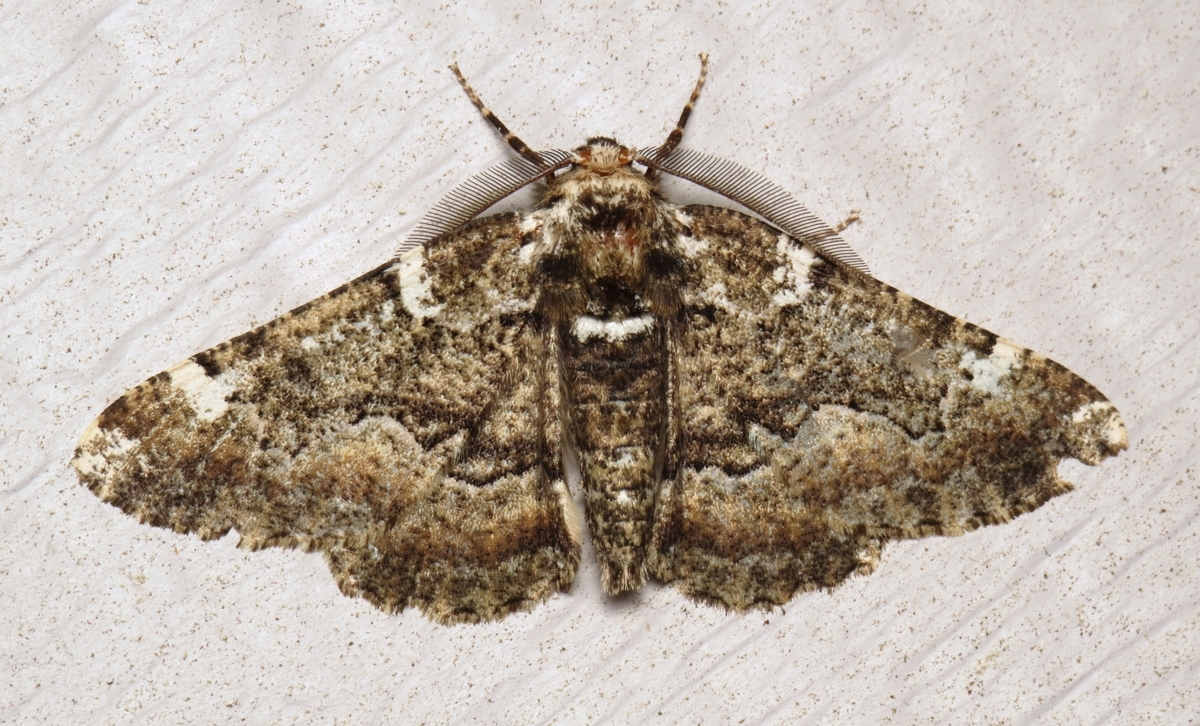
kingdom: Animalia
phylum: Arthropoda
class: Insecta
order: Lepidoptera
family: Geometridae
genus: Phaeoura
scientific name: Phaeoura quernaria
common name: Oak beauty
